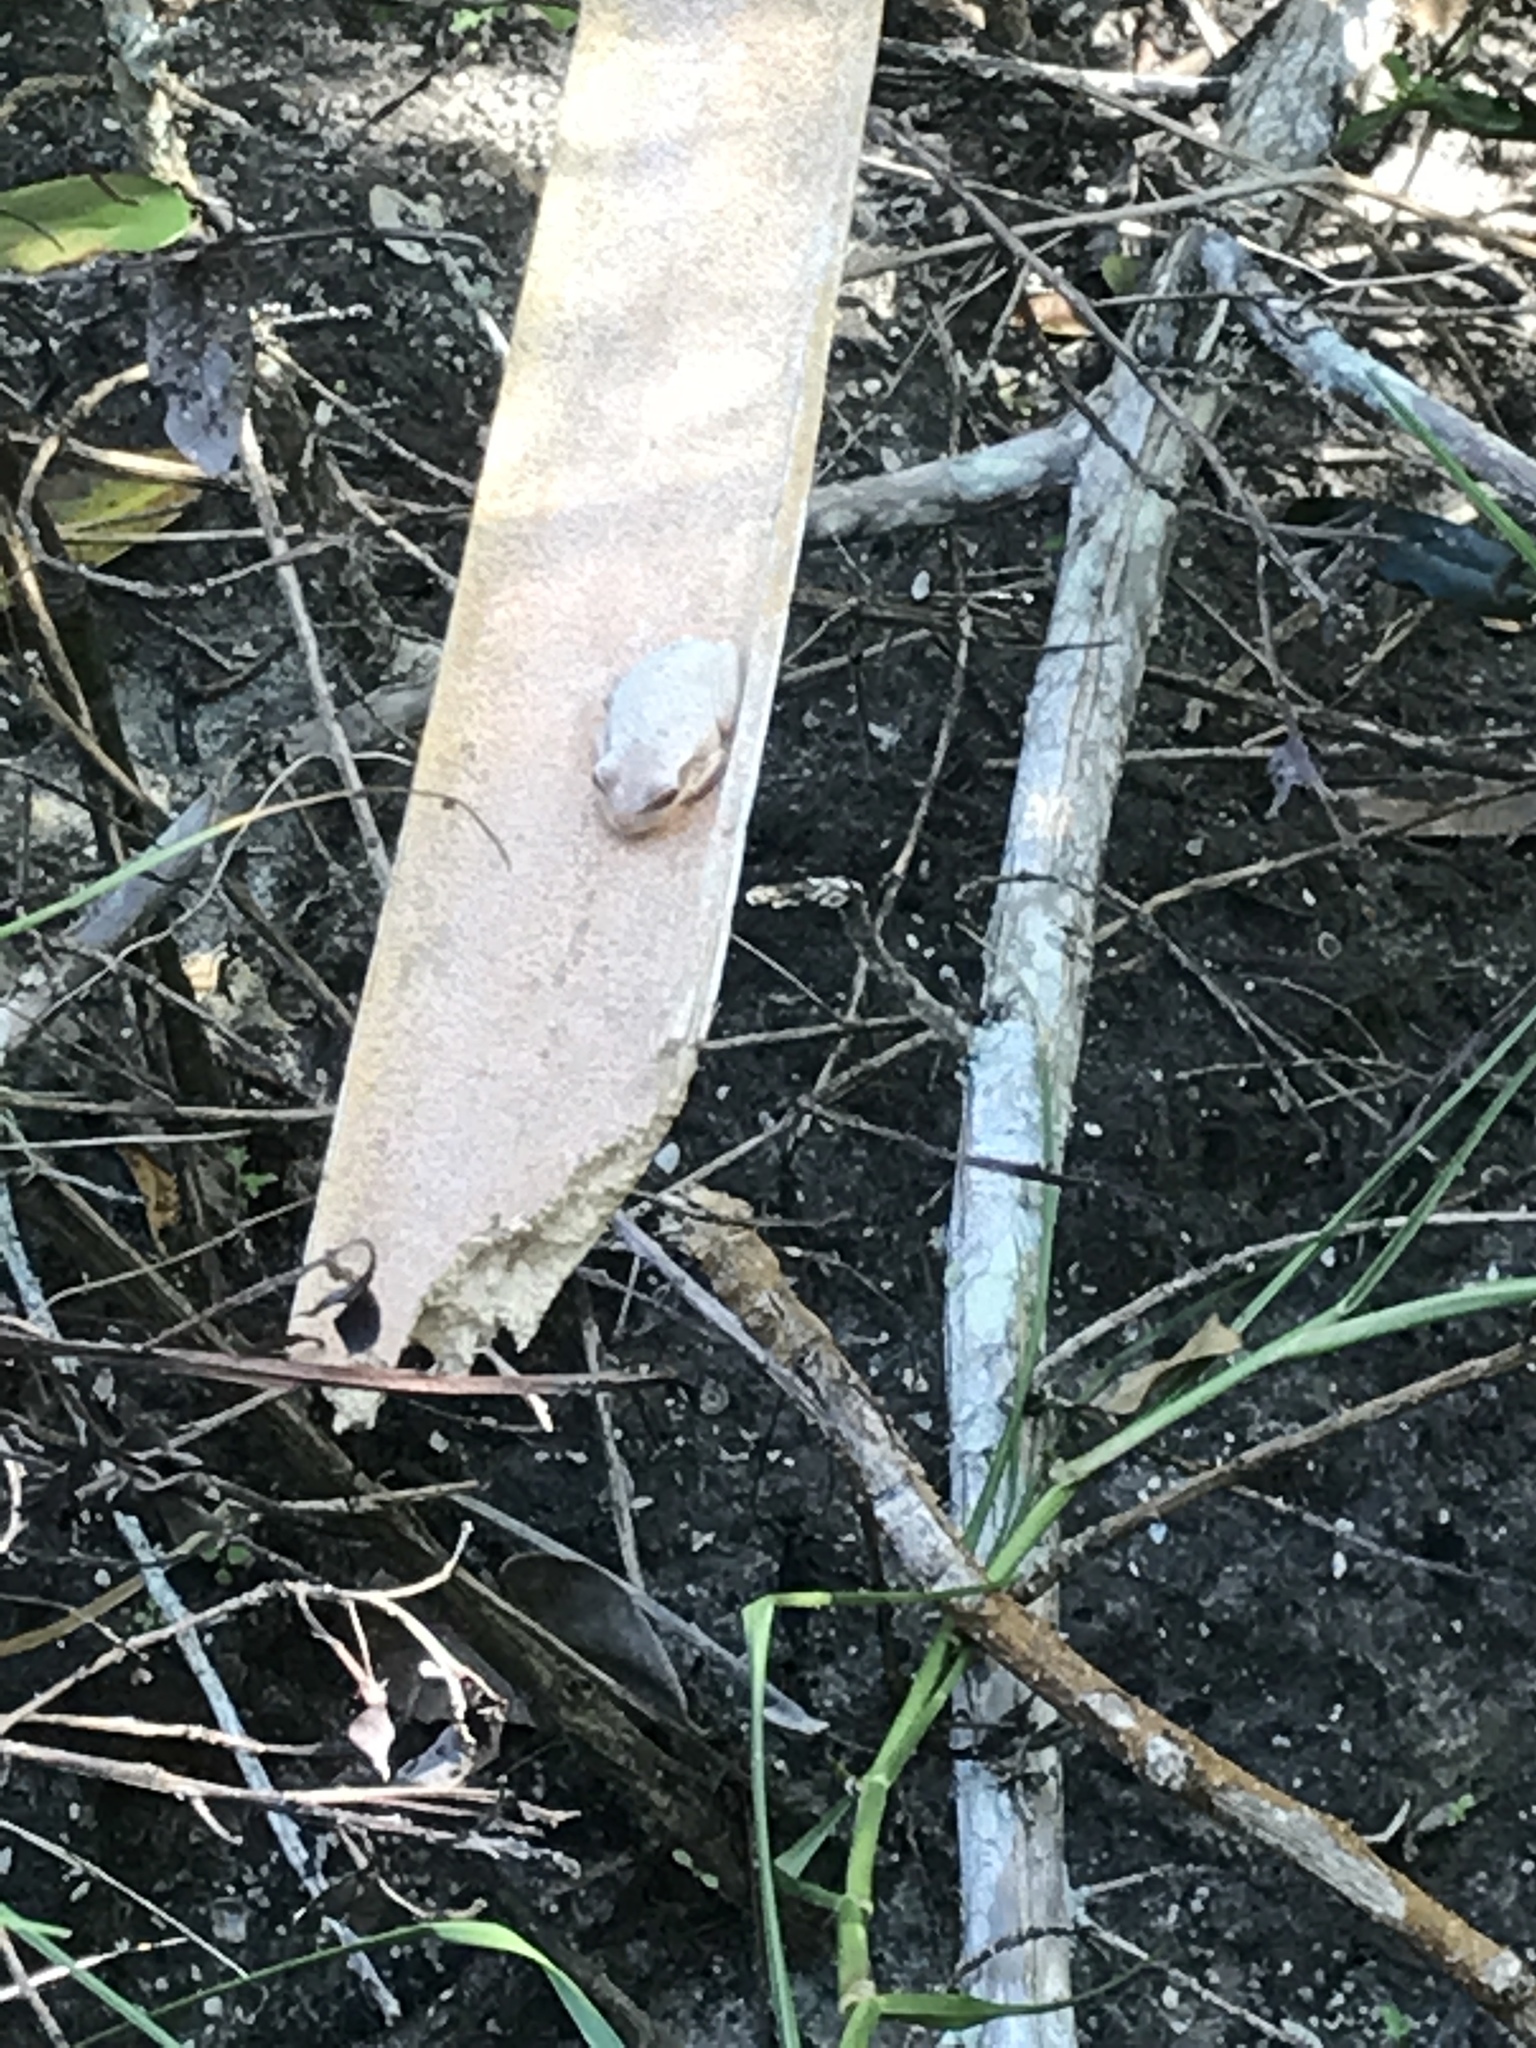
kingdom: Animalia
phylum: Chordata
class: Amphibia
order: Anura
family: Hylidae
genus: Osteopilus
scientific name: Osteopilus septentrionalis
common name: Cuban treefrog
